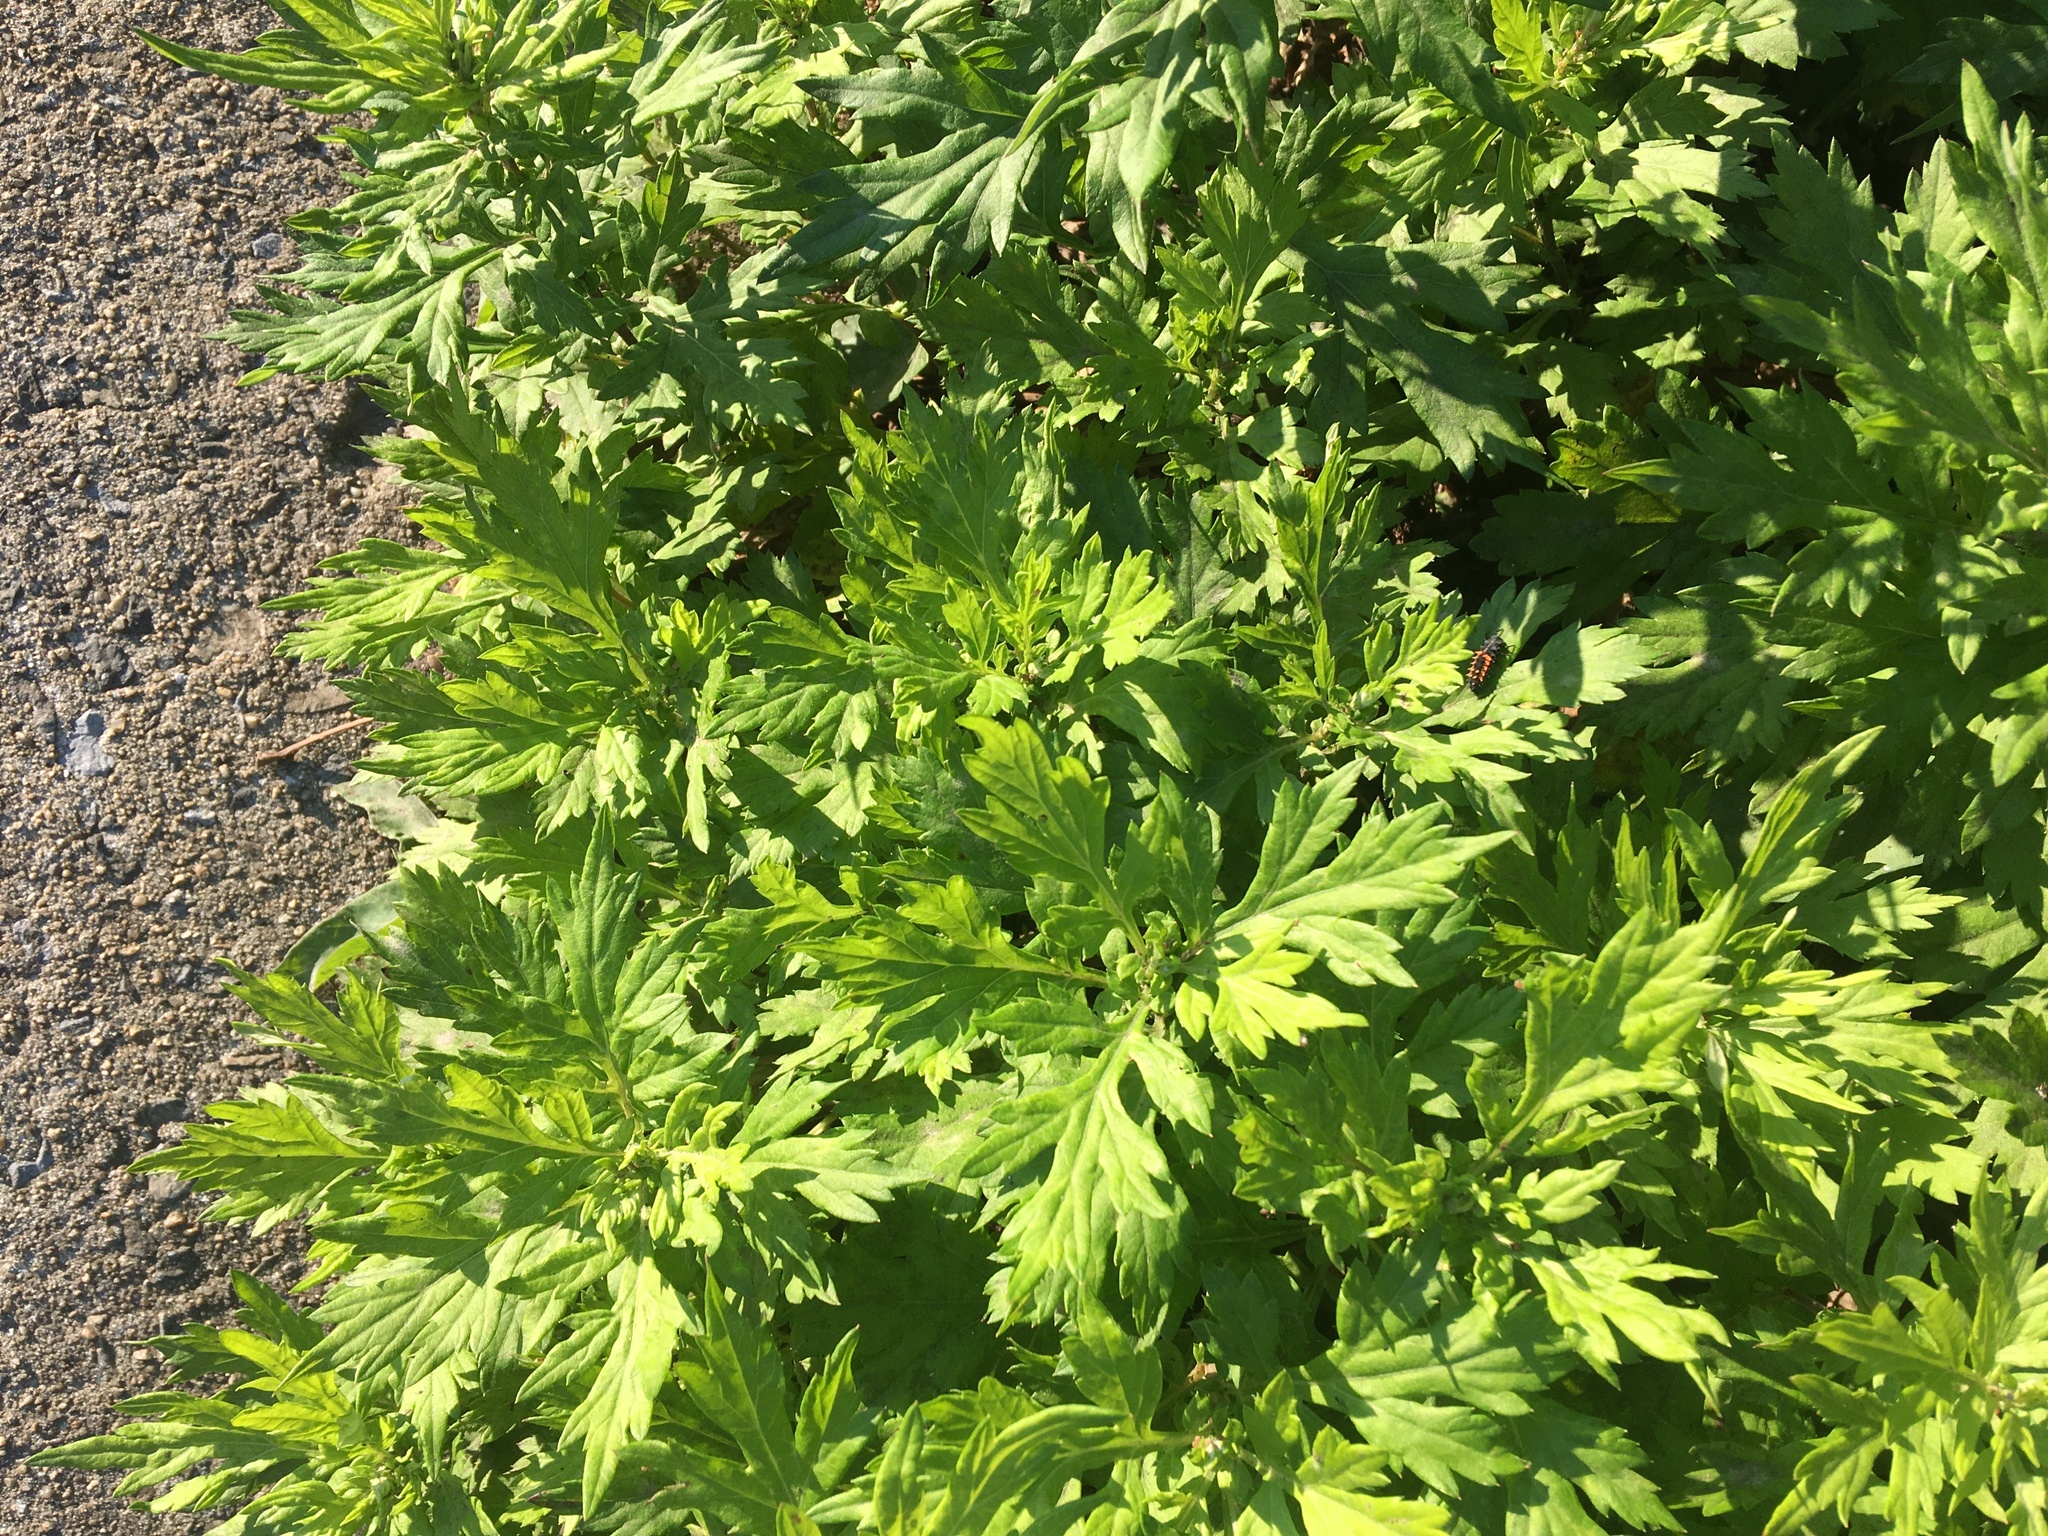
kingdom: Plantae
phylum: Tracheophyta
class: Magnoliopsida
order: Asterales
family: Asteraceae
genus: Artemisia
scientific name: Artemisia vulgaris
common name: Mugwort
